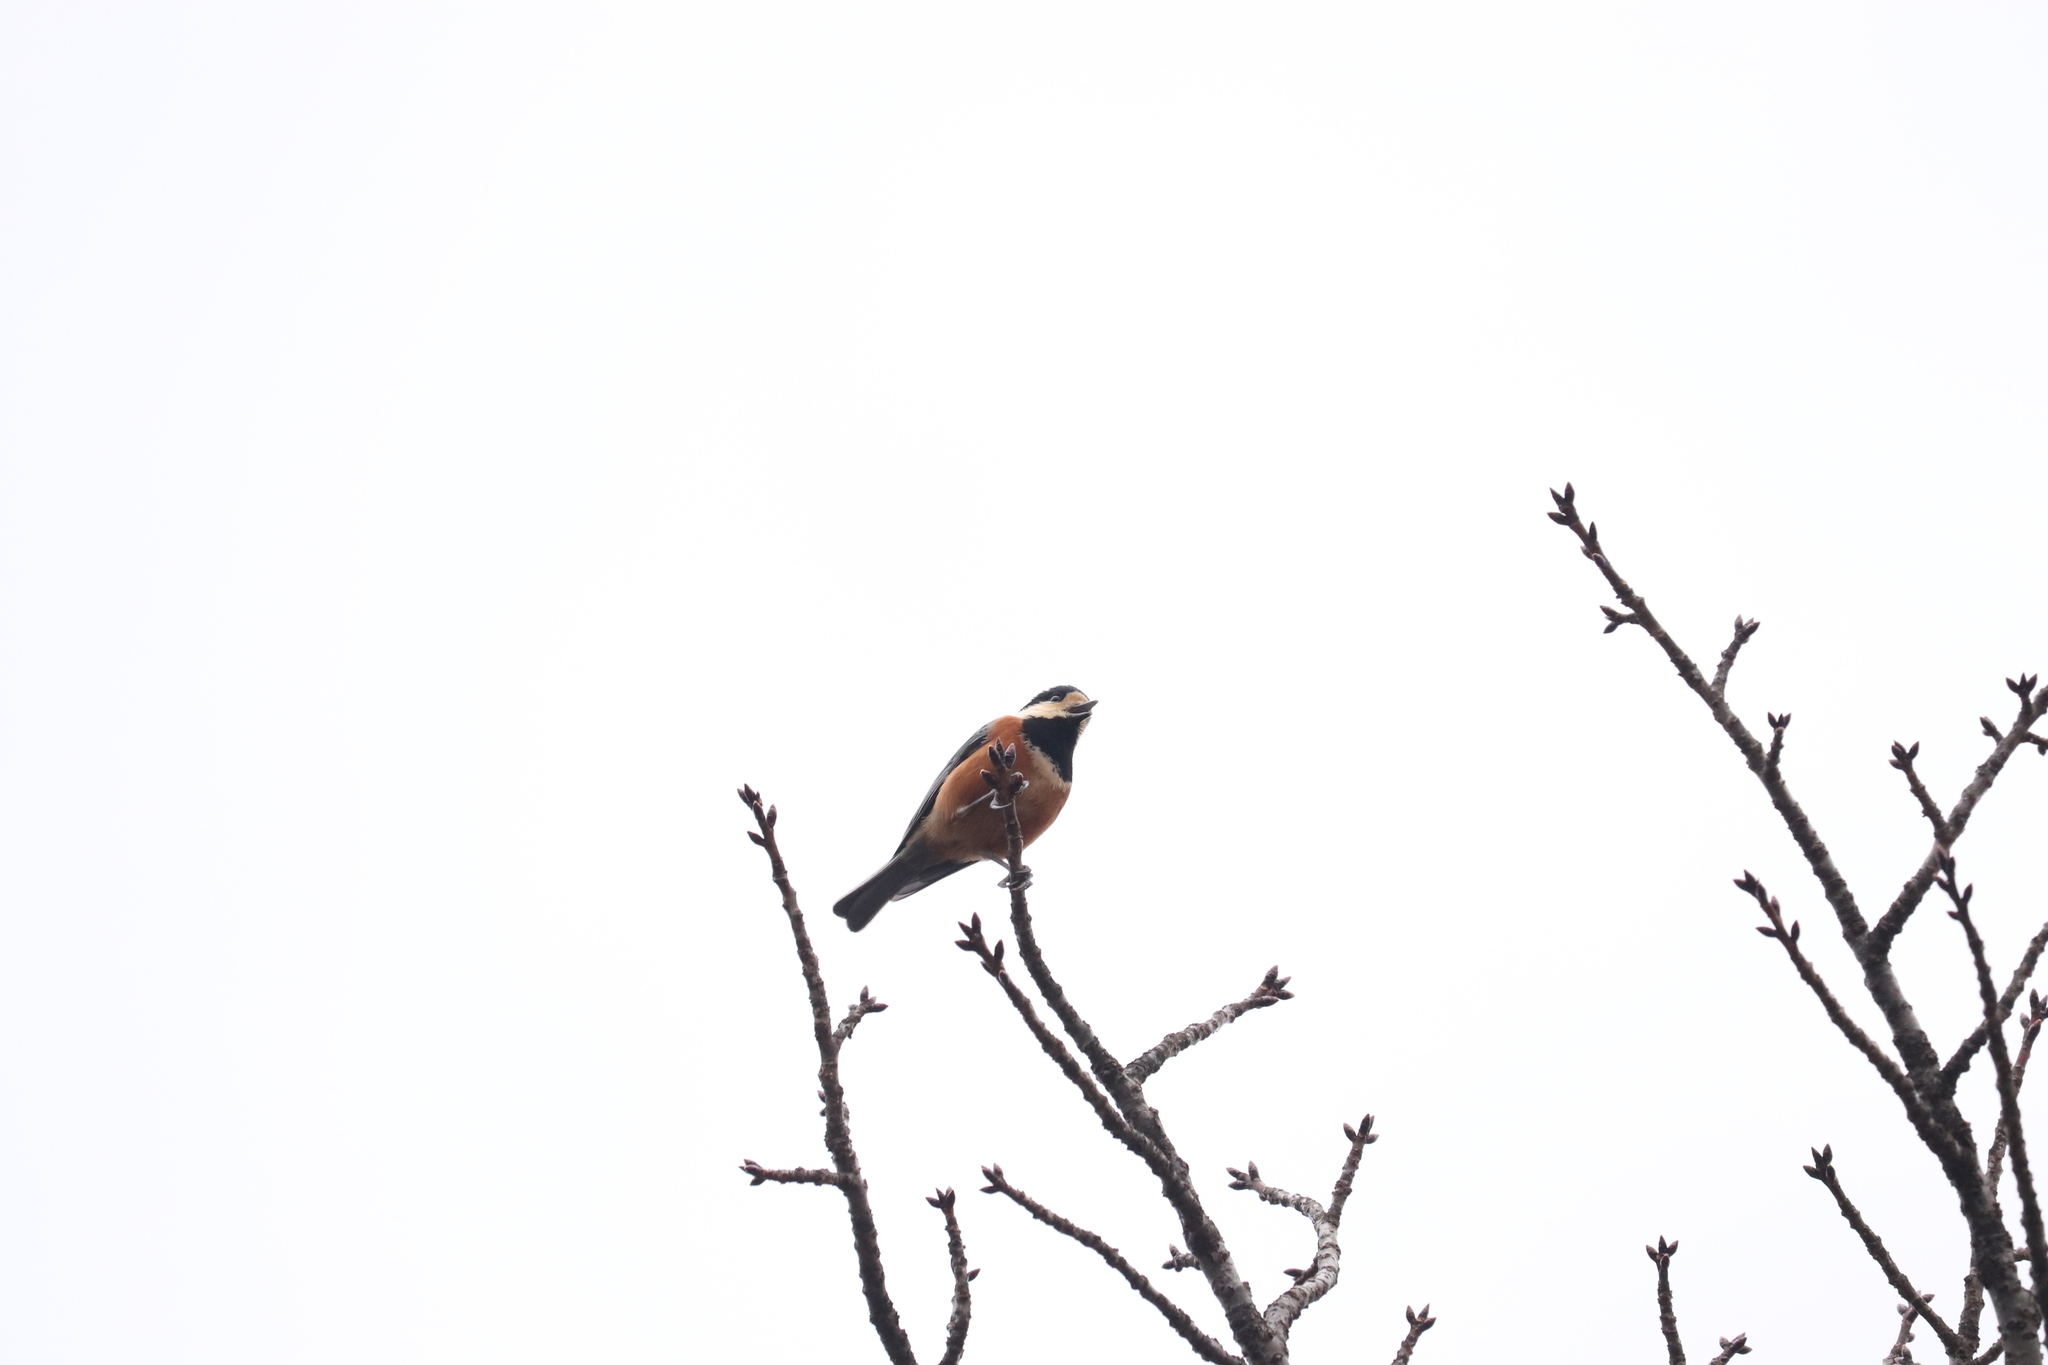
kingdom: Animalia
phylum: Chordata
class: Aves
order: Passeriformes
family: Paridae
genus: Poecile
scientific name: Poecile varius
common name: Varied tit
